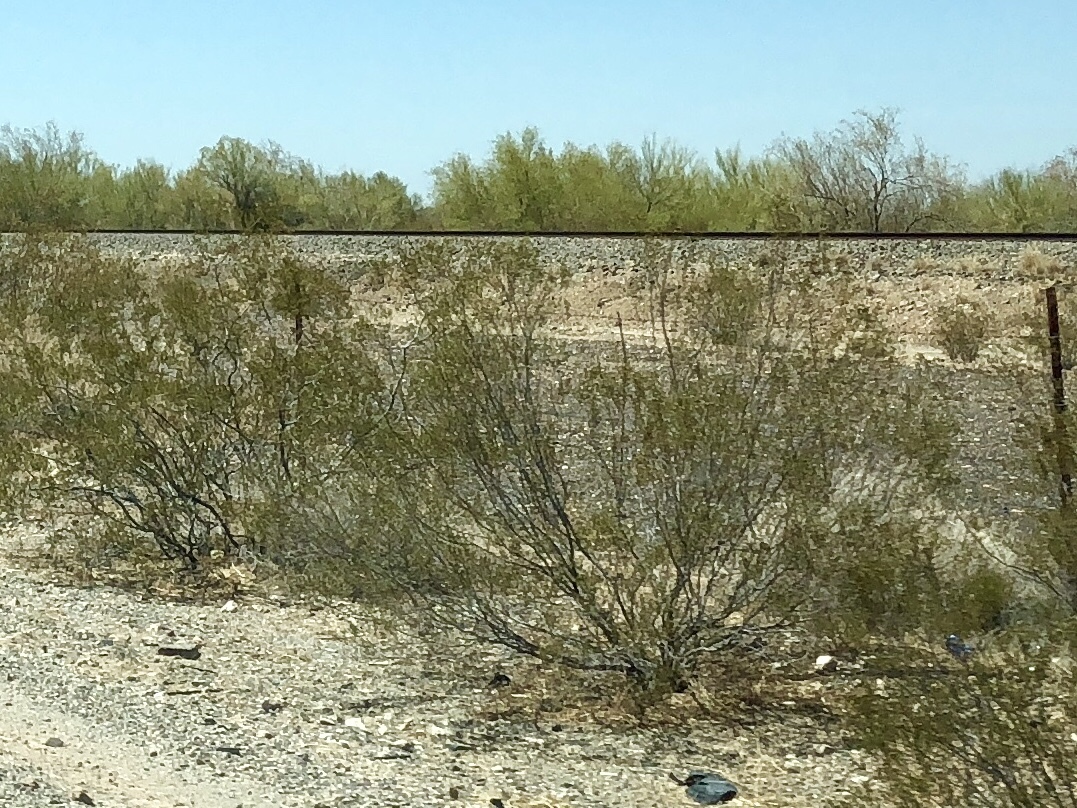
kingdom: Plantae
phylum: Tracheophyta
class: Magnoliopsida
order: Zygophyllales
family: Zygophyllaceae
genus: Larrea
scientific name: Larrea tridentata
